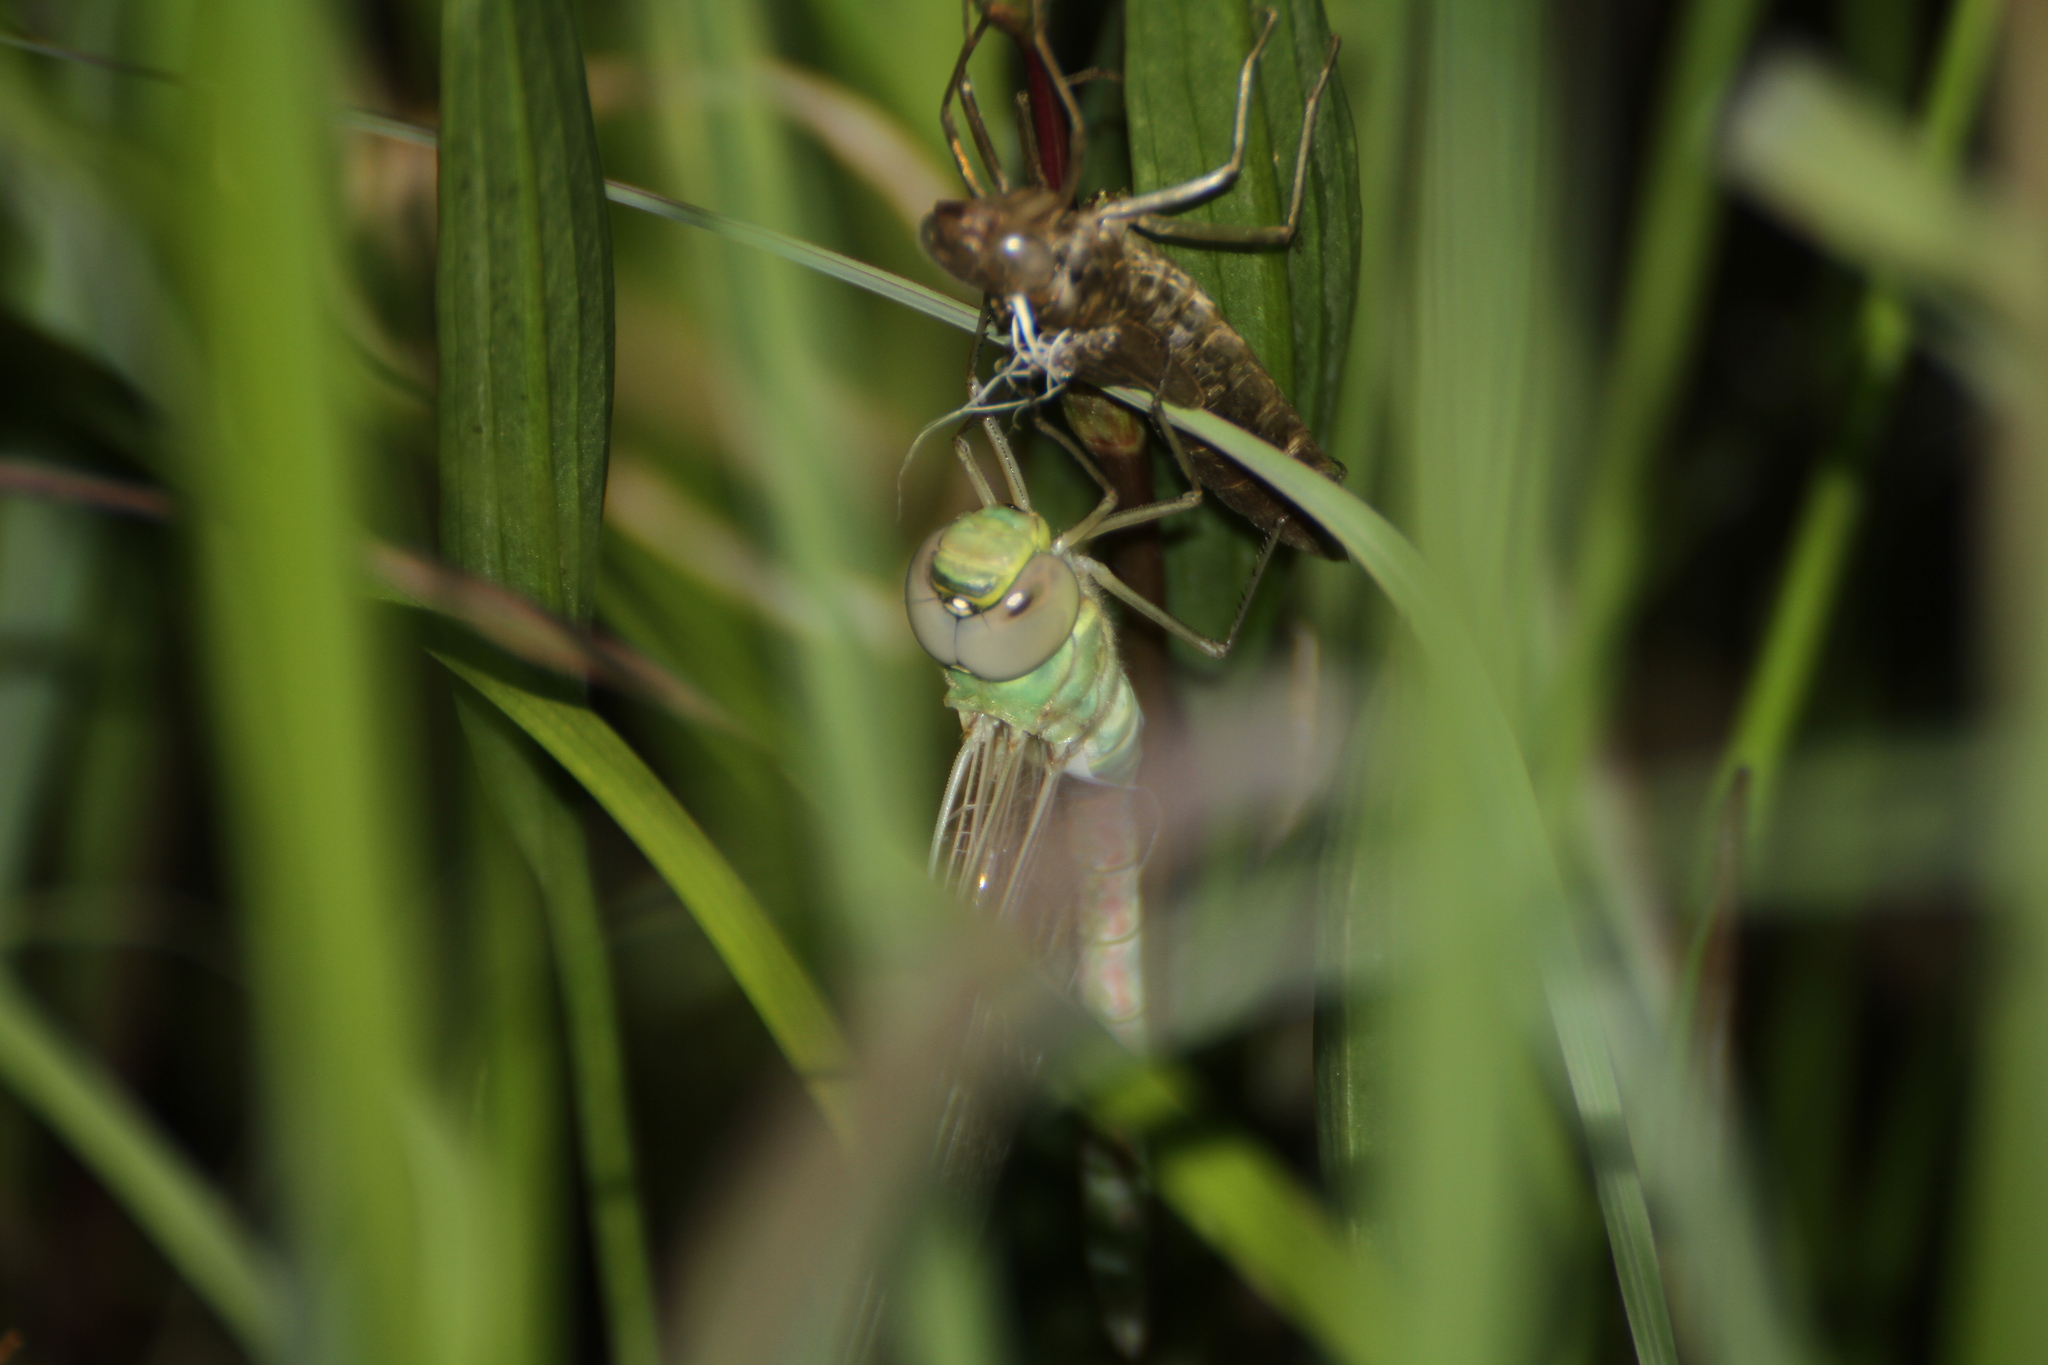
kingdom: Animalia
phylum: Arthropoda
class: Insecta
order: Odonata
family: Aeshnidae
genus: Anax
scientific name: Anax imperator
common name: Emperor dragonfly
